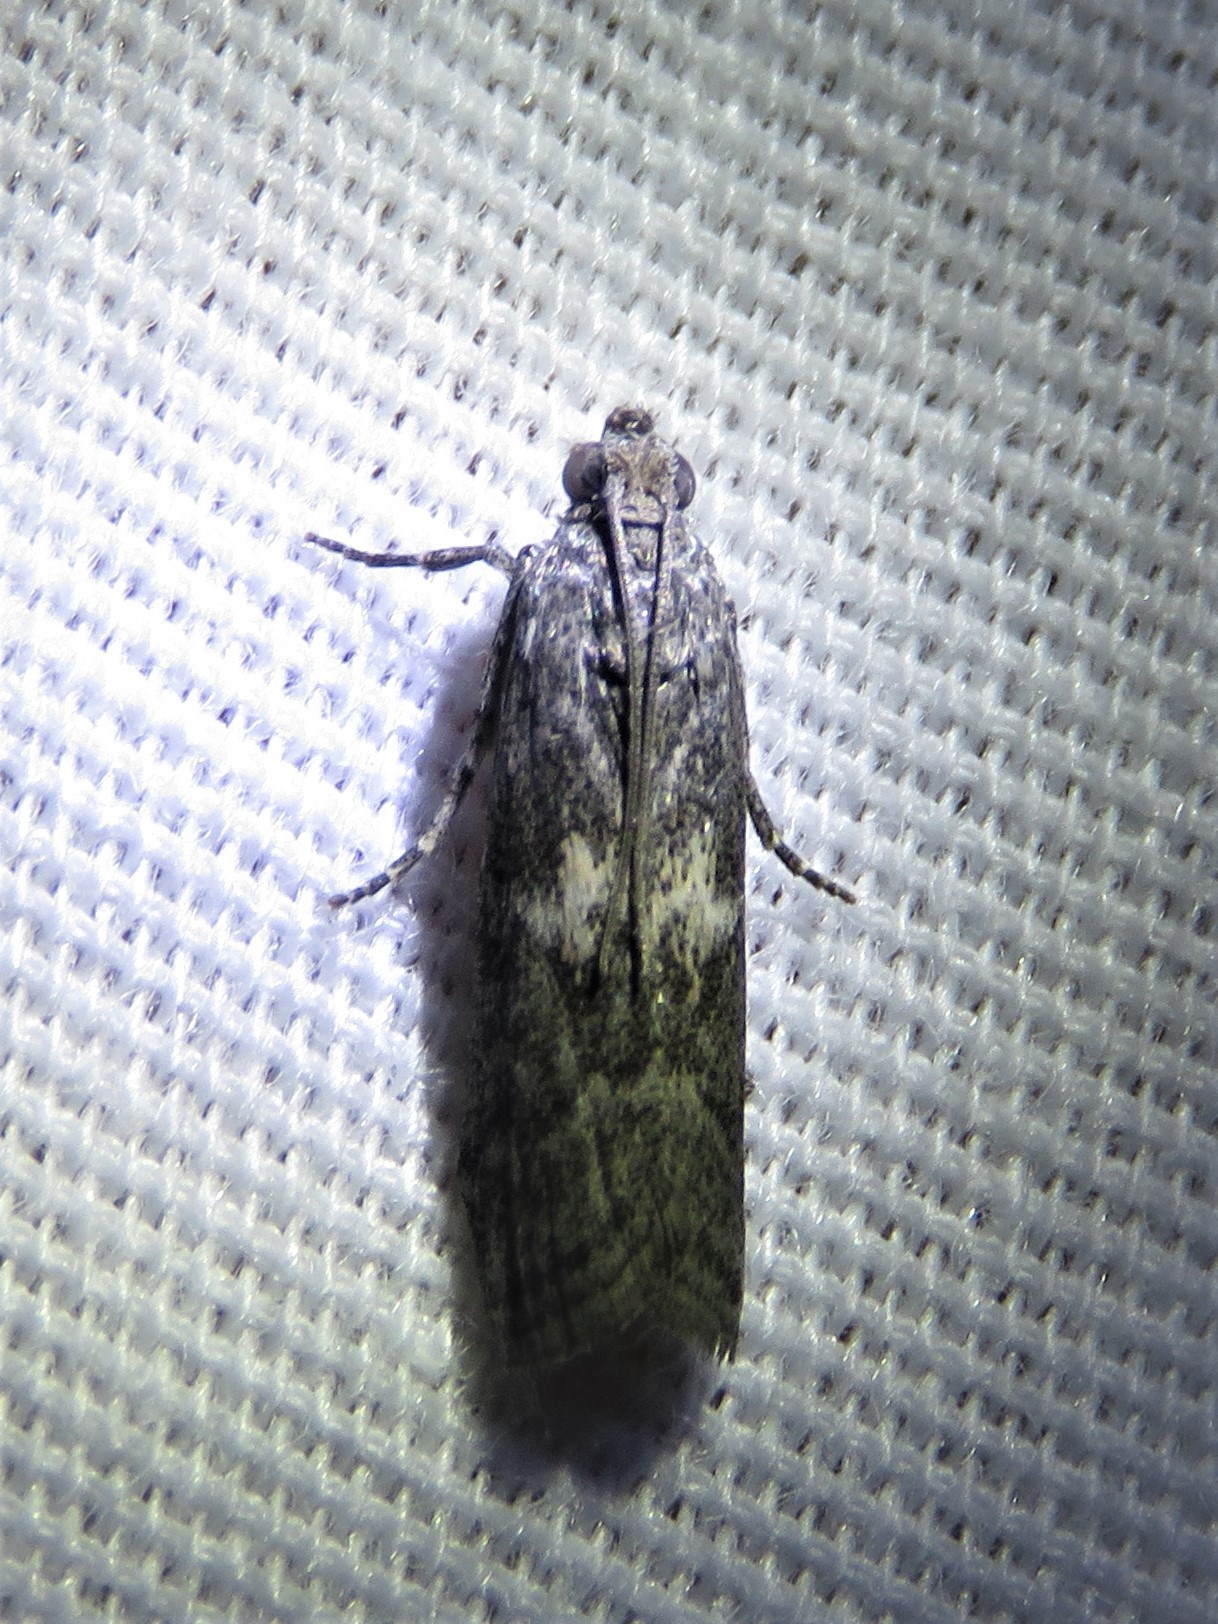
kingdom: Animalia
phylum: Arthropoda
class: Insecta
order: Lepidoptera
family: Pyralidae
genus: Tacoma
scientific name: Tacoma feriella
